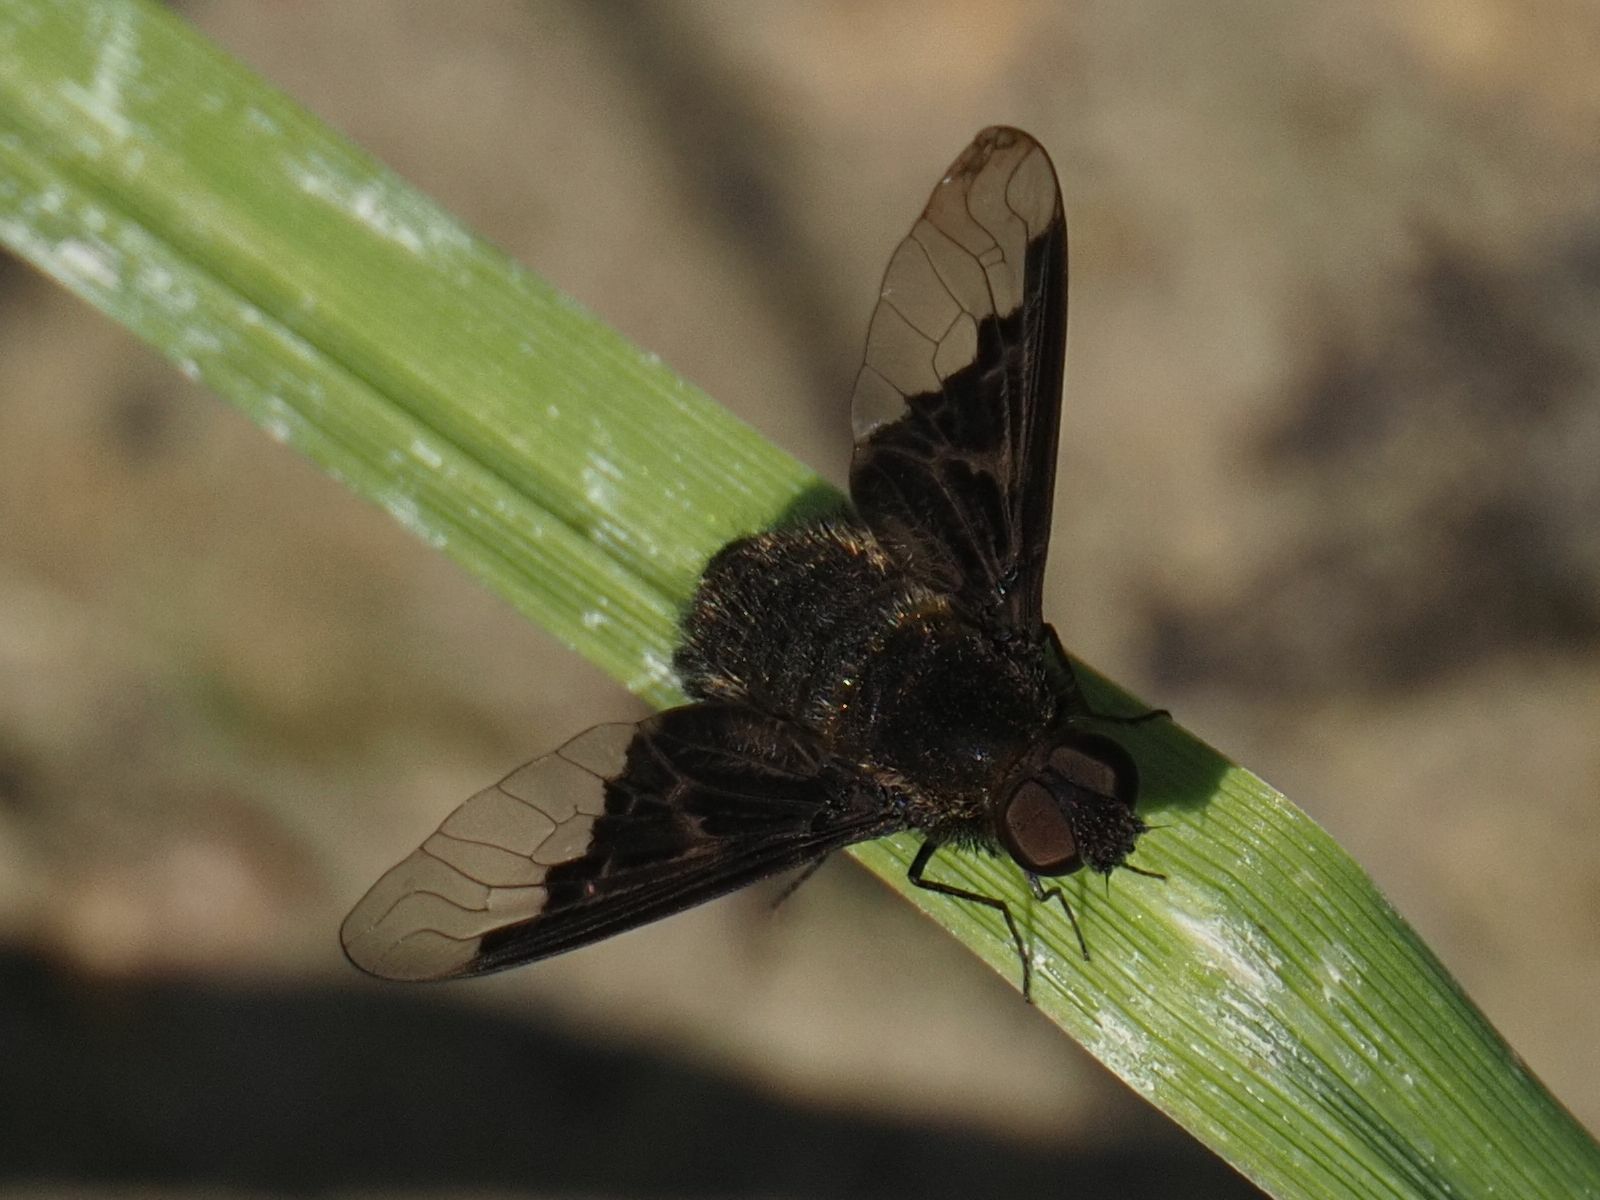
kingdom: Animalia
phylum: Arthropoda
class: Insecta
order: Diptera
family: Bombyliidae
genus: Hemipenthes
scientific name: Hemipenthes morio
